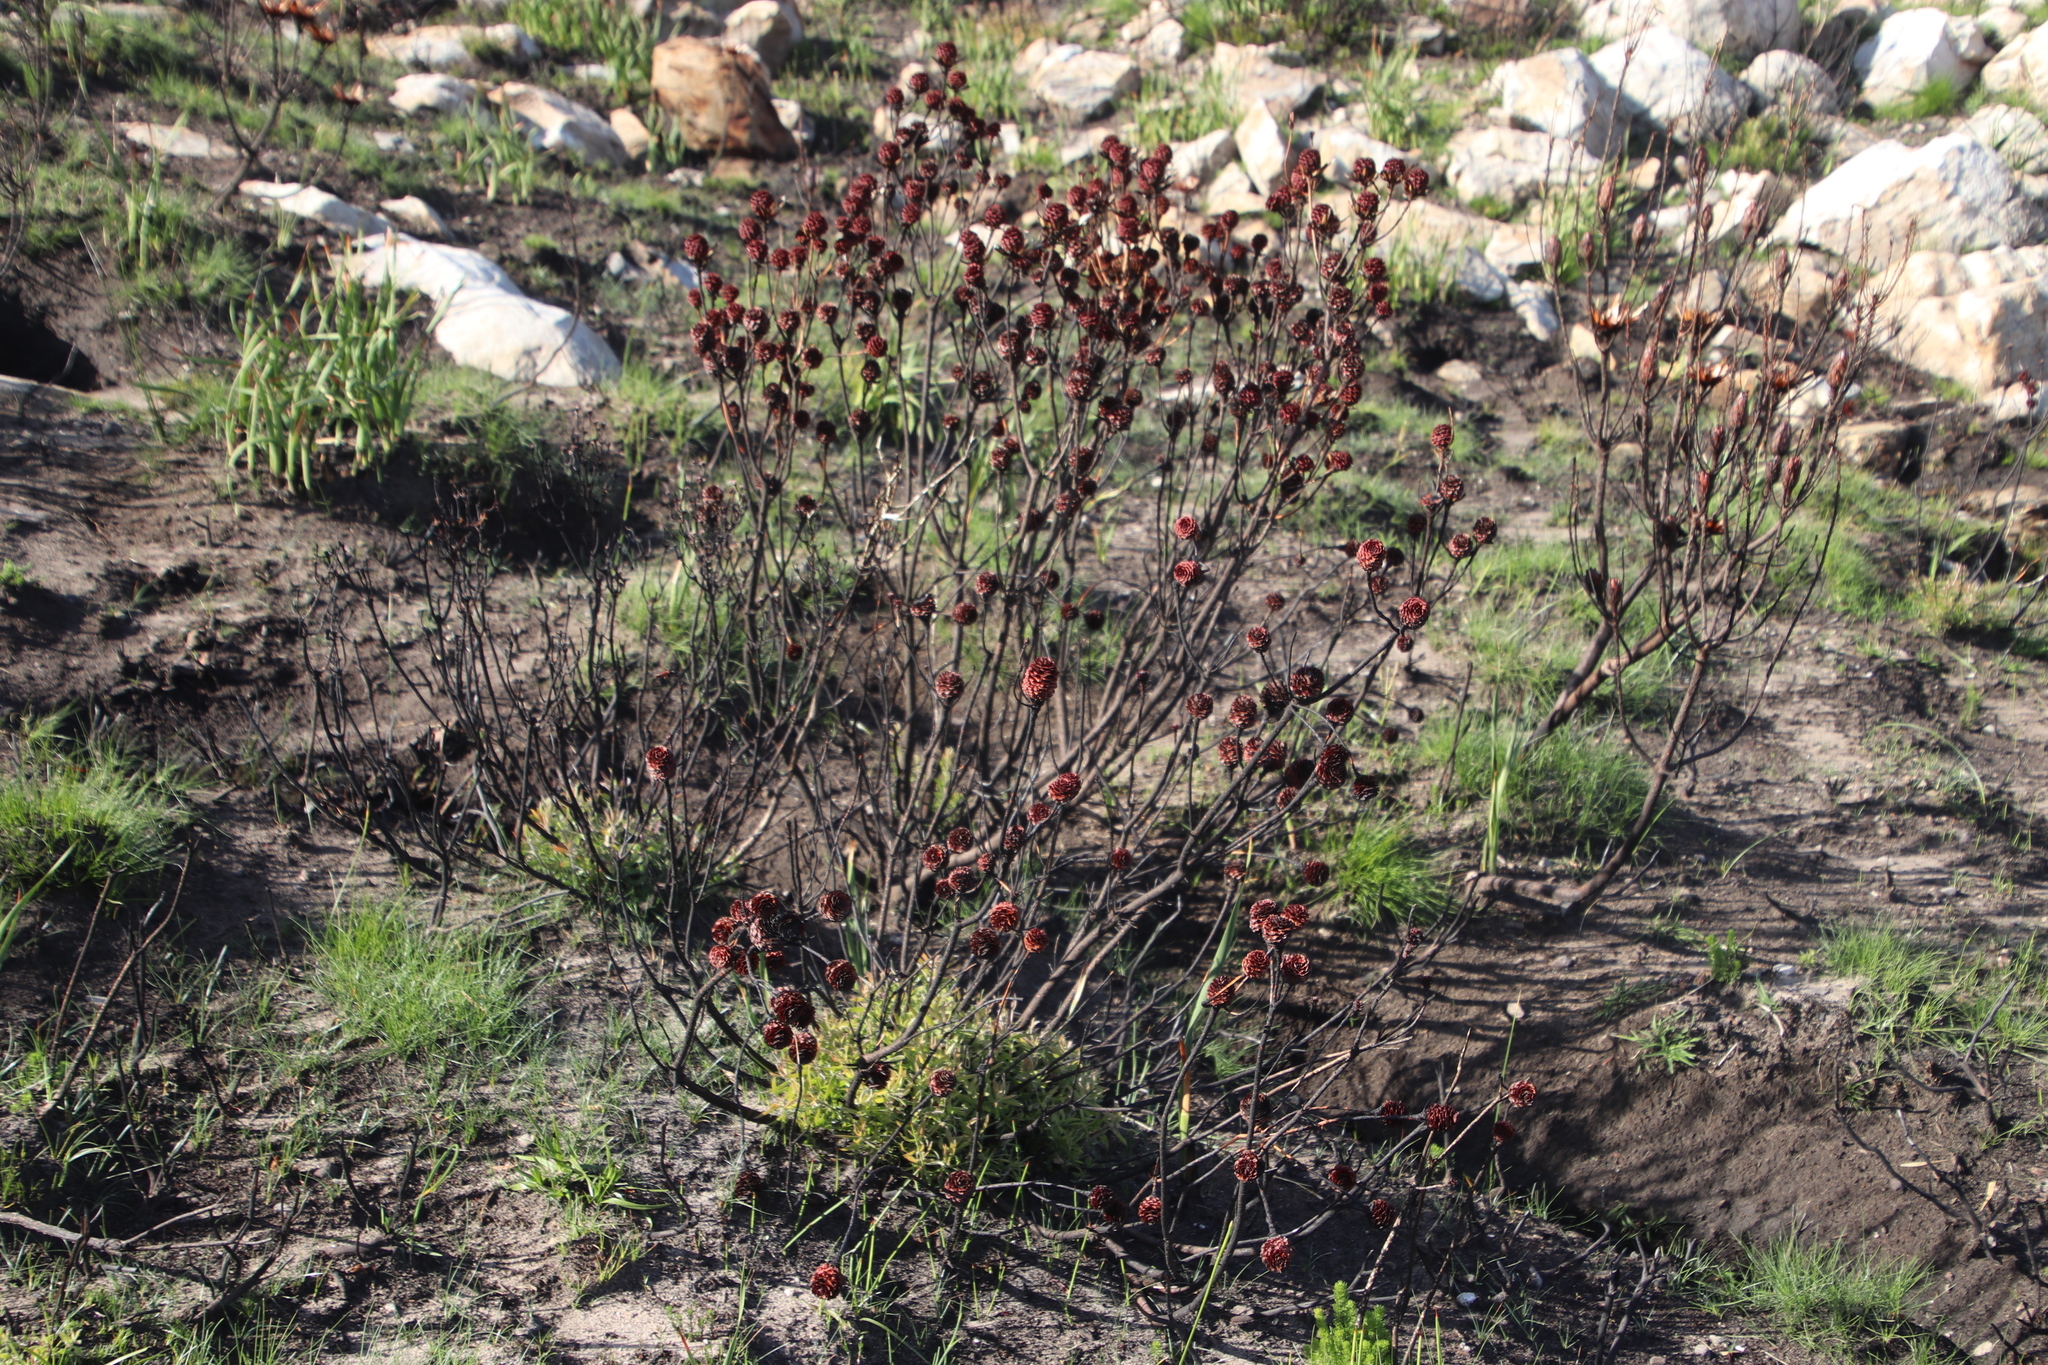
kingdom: Plantae
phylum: Tracheophyta
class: Magnoliopsida
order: Proteales
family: Proteaceae
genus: Leucadendron
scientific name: Leucadendron spissifolium
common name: Spear-leaf conebush
